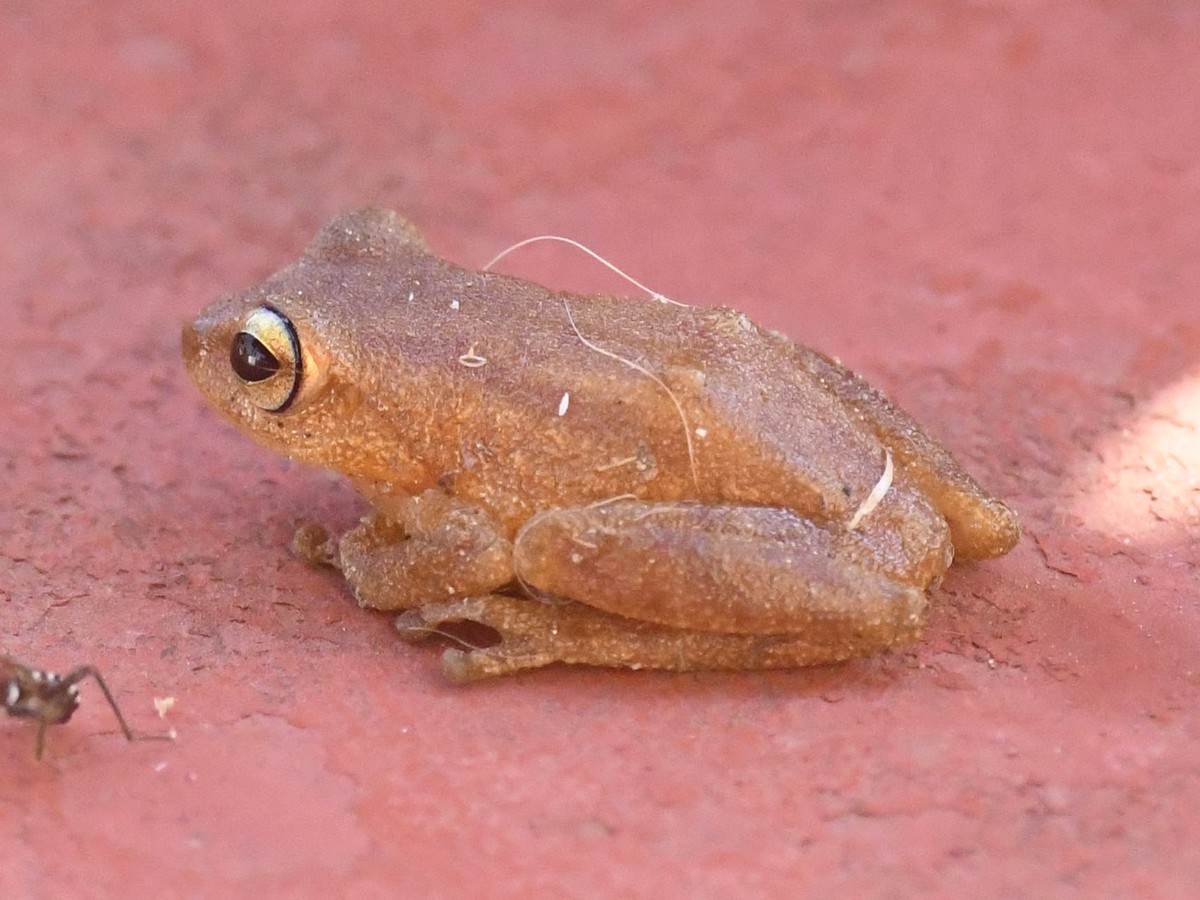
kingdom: Animalia
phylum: Chordata
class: Amphibia
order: Anura
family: Rhacophoridae
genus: Raorchestes
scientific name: Raorchestes luteolus
